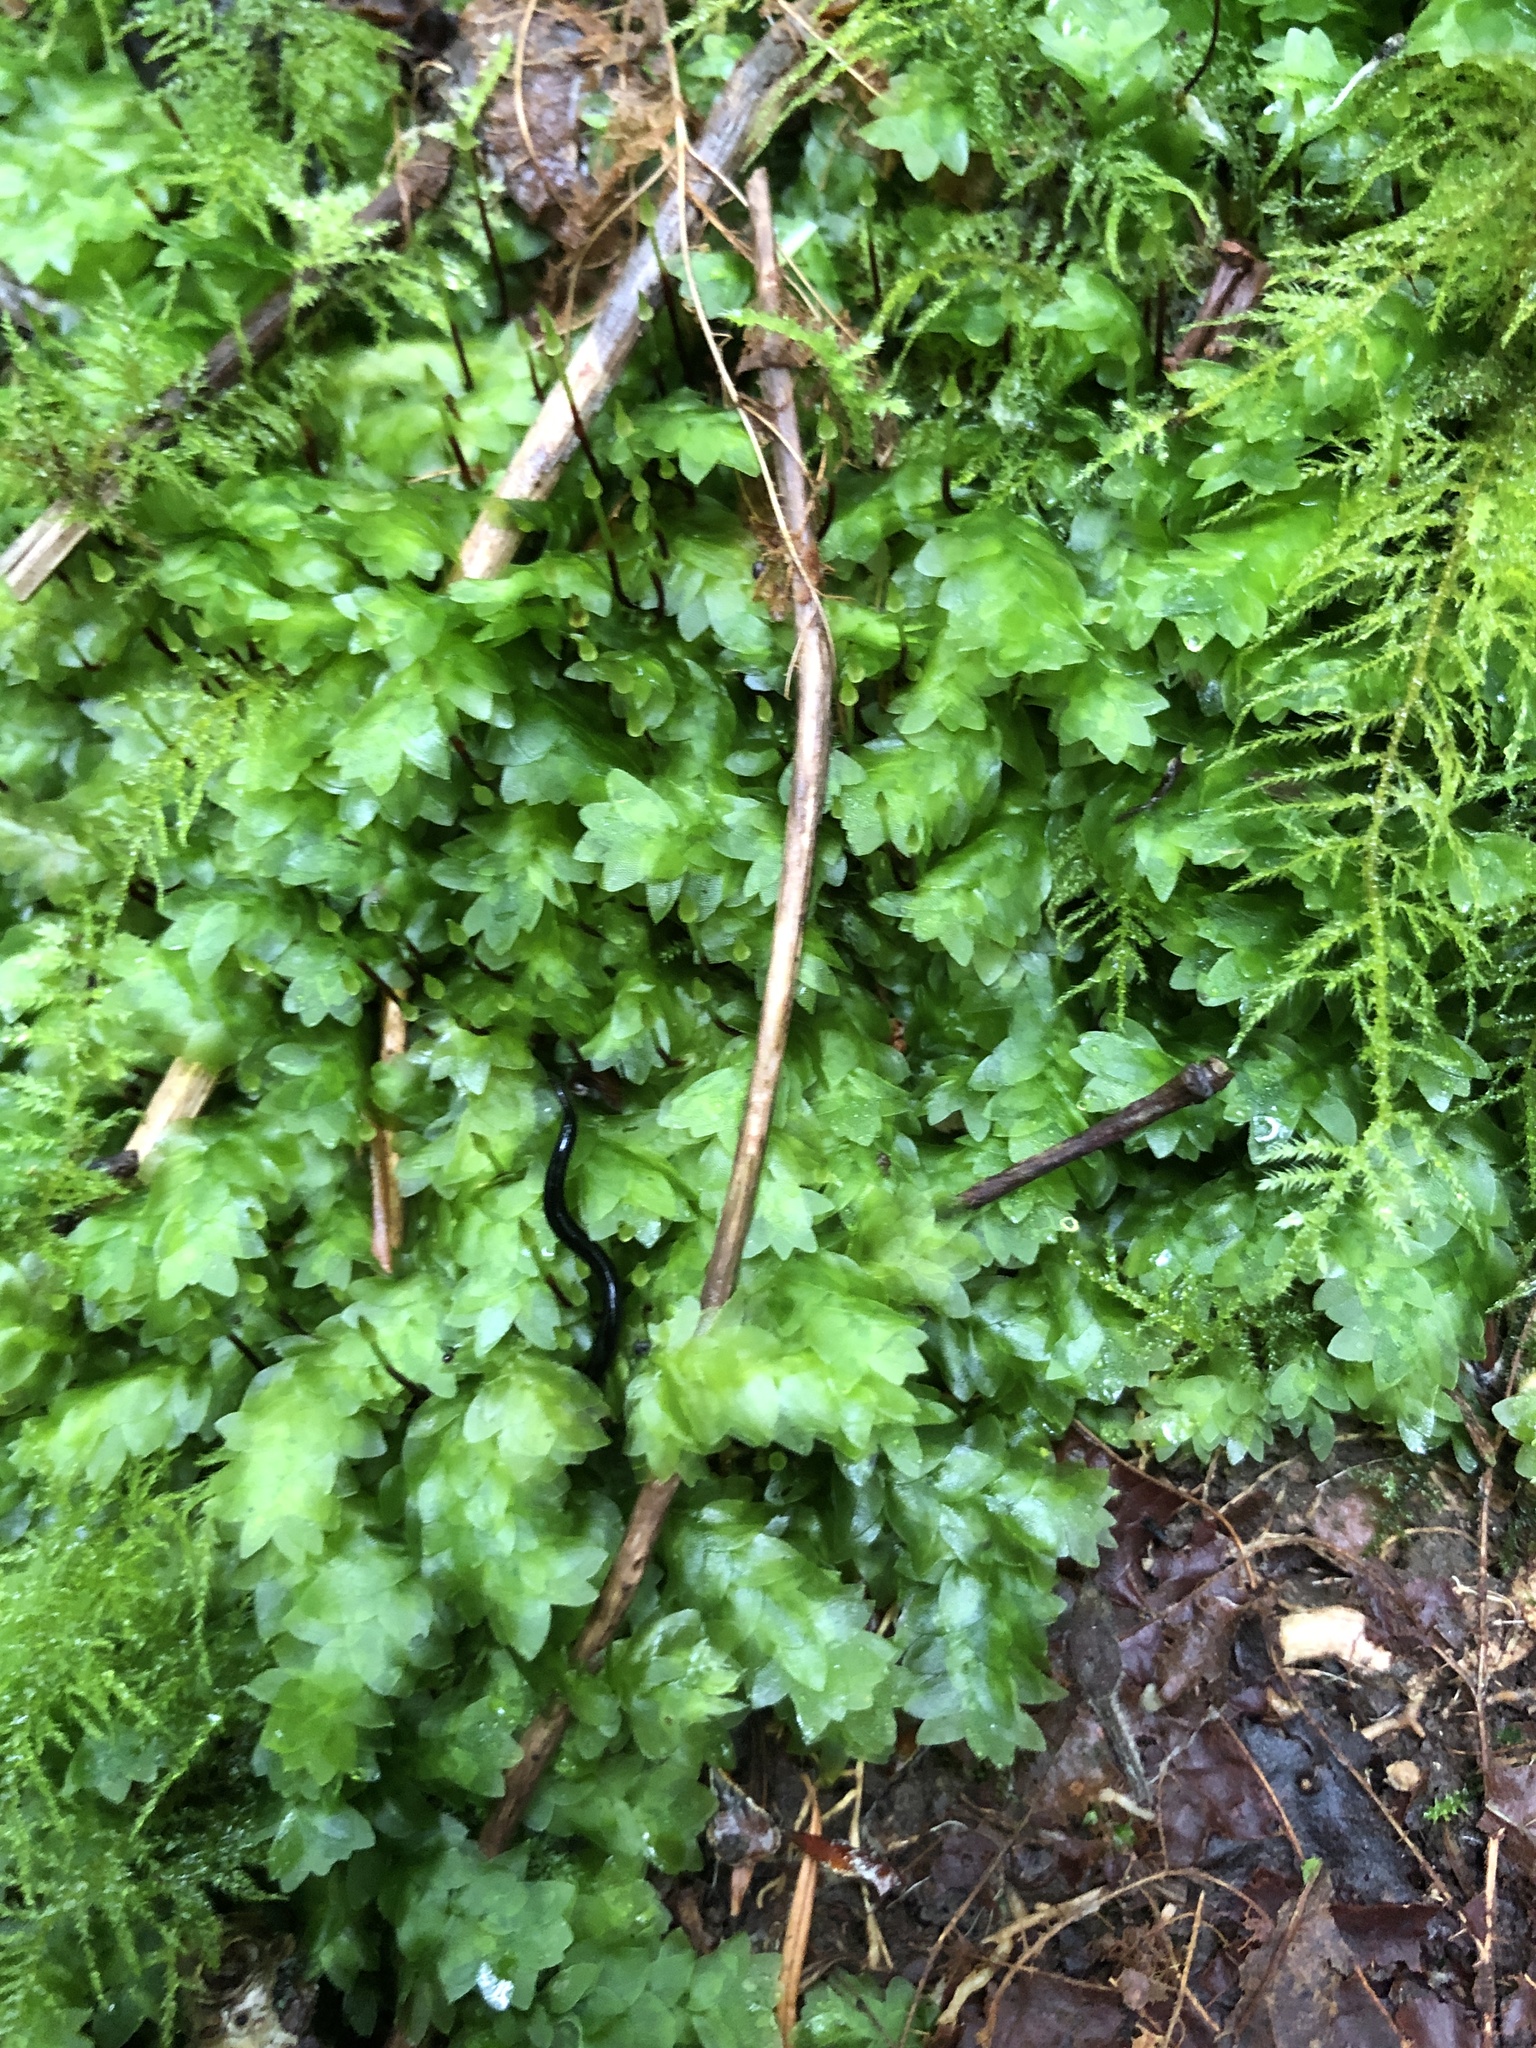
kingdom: Plantae
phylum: Bryophyta
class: Bryopsida
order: Hookeriales
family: Hookeriaceae
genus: Hookeria
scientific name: Hookeria lucens
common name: Shining hookeria
